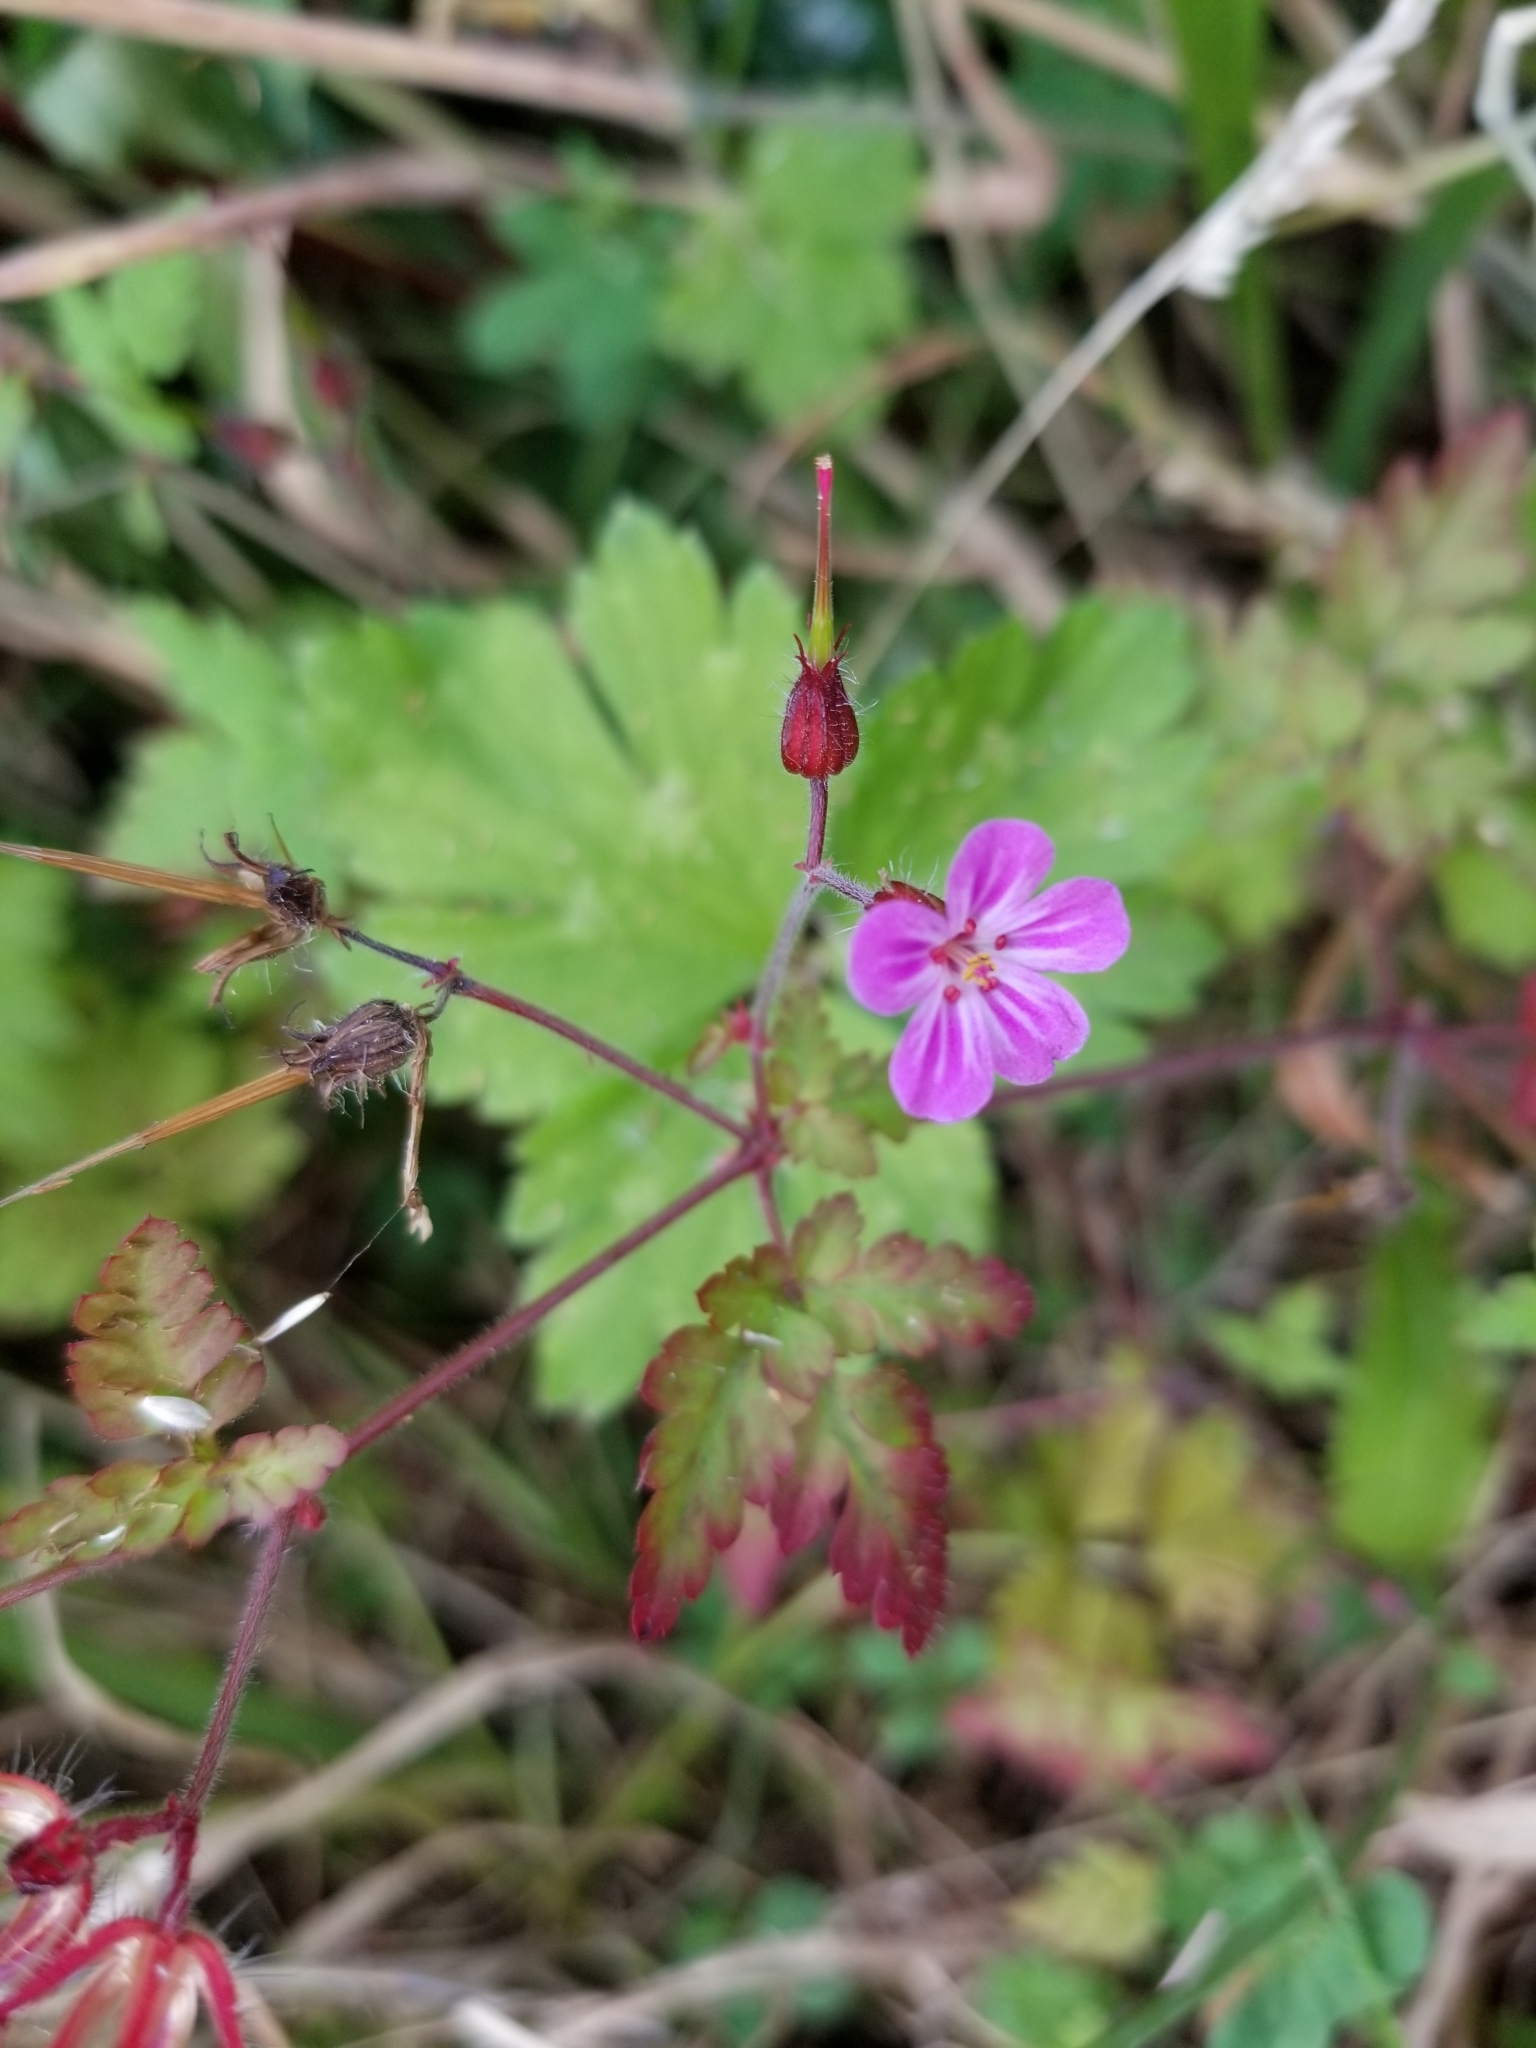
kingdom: Plantae
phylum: Tracheophyta
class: Magnoliopsida
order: Geraniales
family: Geraniaceae
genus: Geranium
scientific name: Geranium robertianum
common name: Herb-robert
